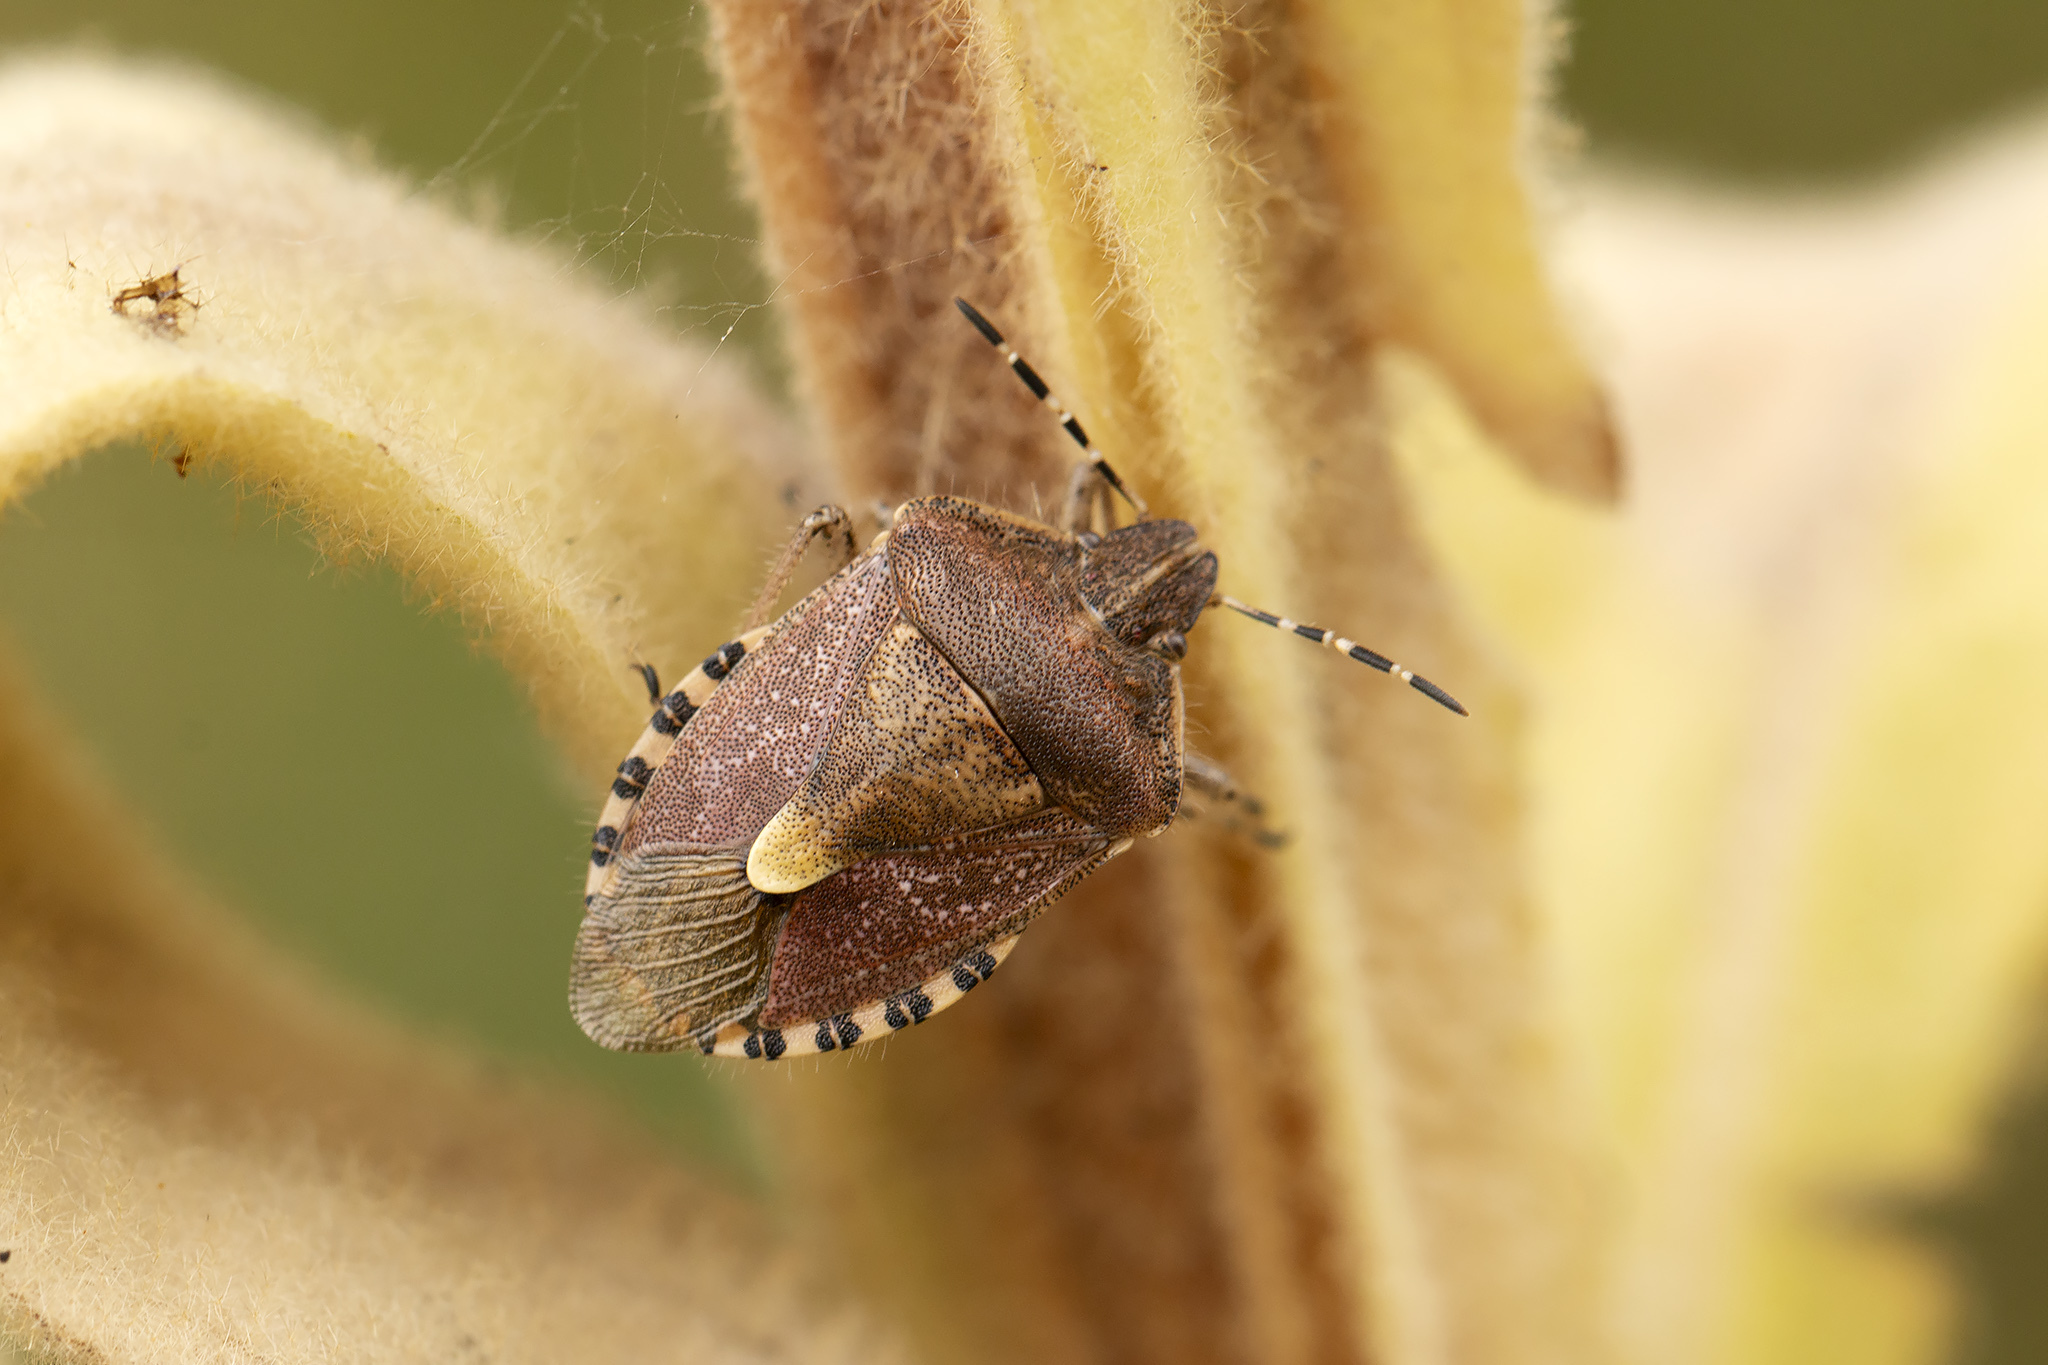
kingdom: Animalia
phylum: Arthropoda
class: Insecta
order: Hemiptera
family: Pentatomidae
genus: Dolycoris
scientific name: Dolycoris baccarum
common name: Sloe bug
